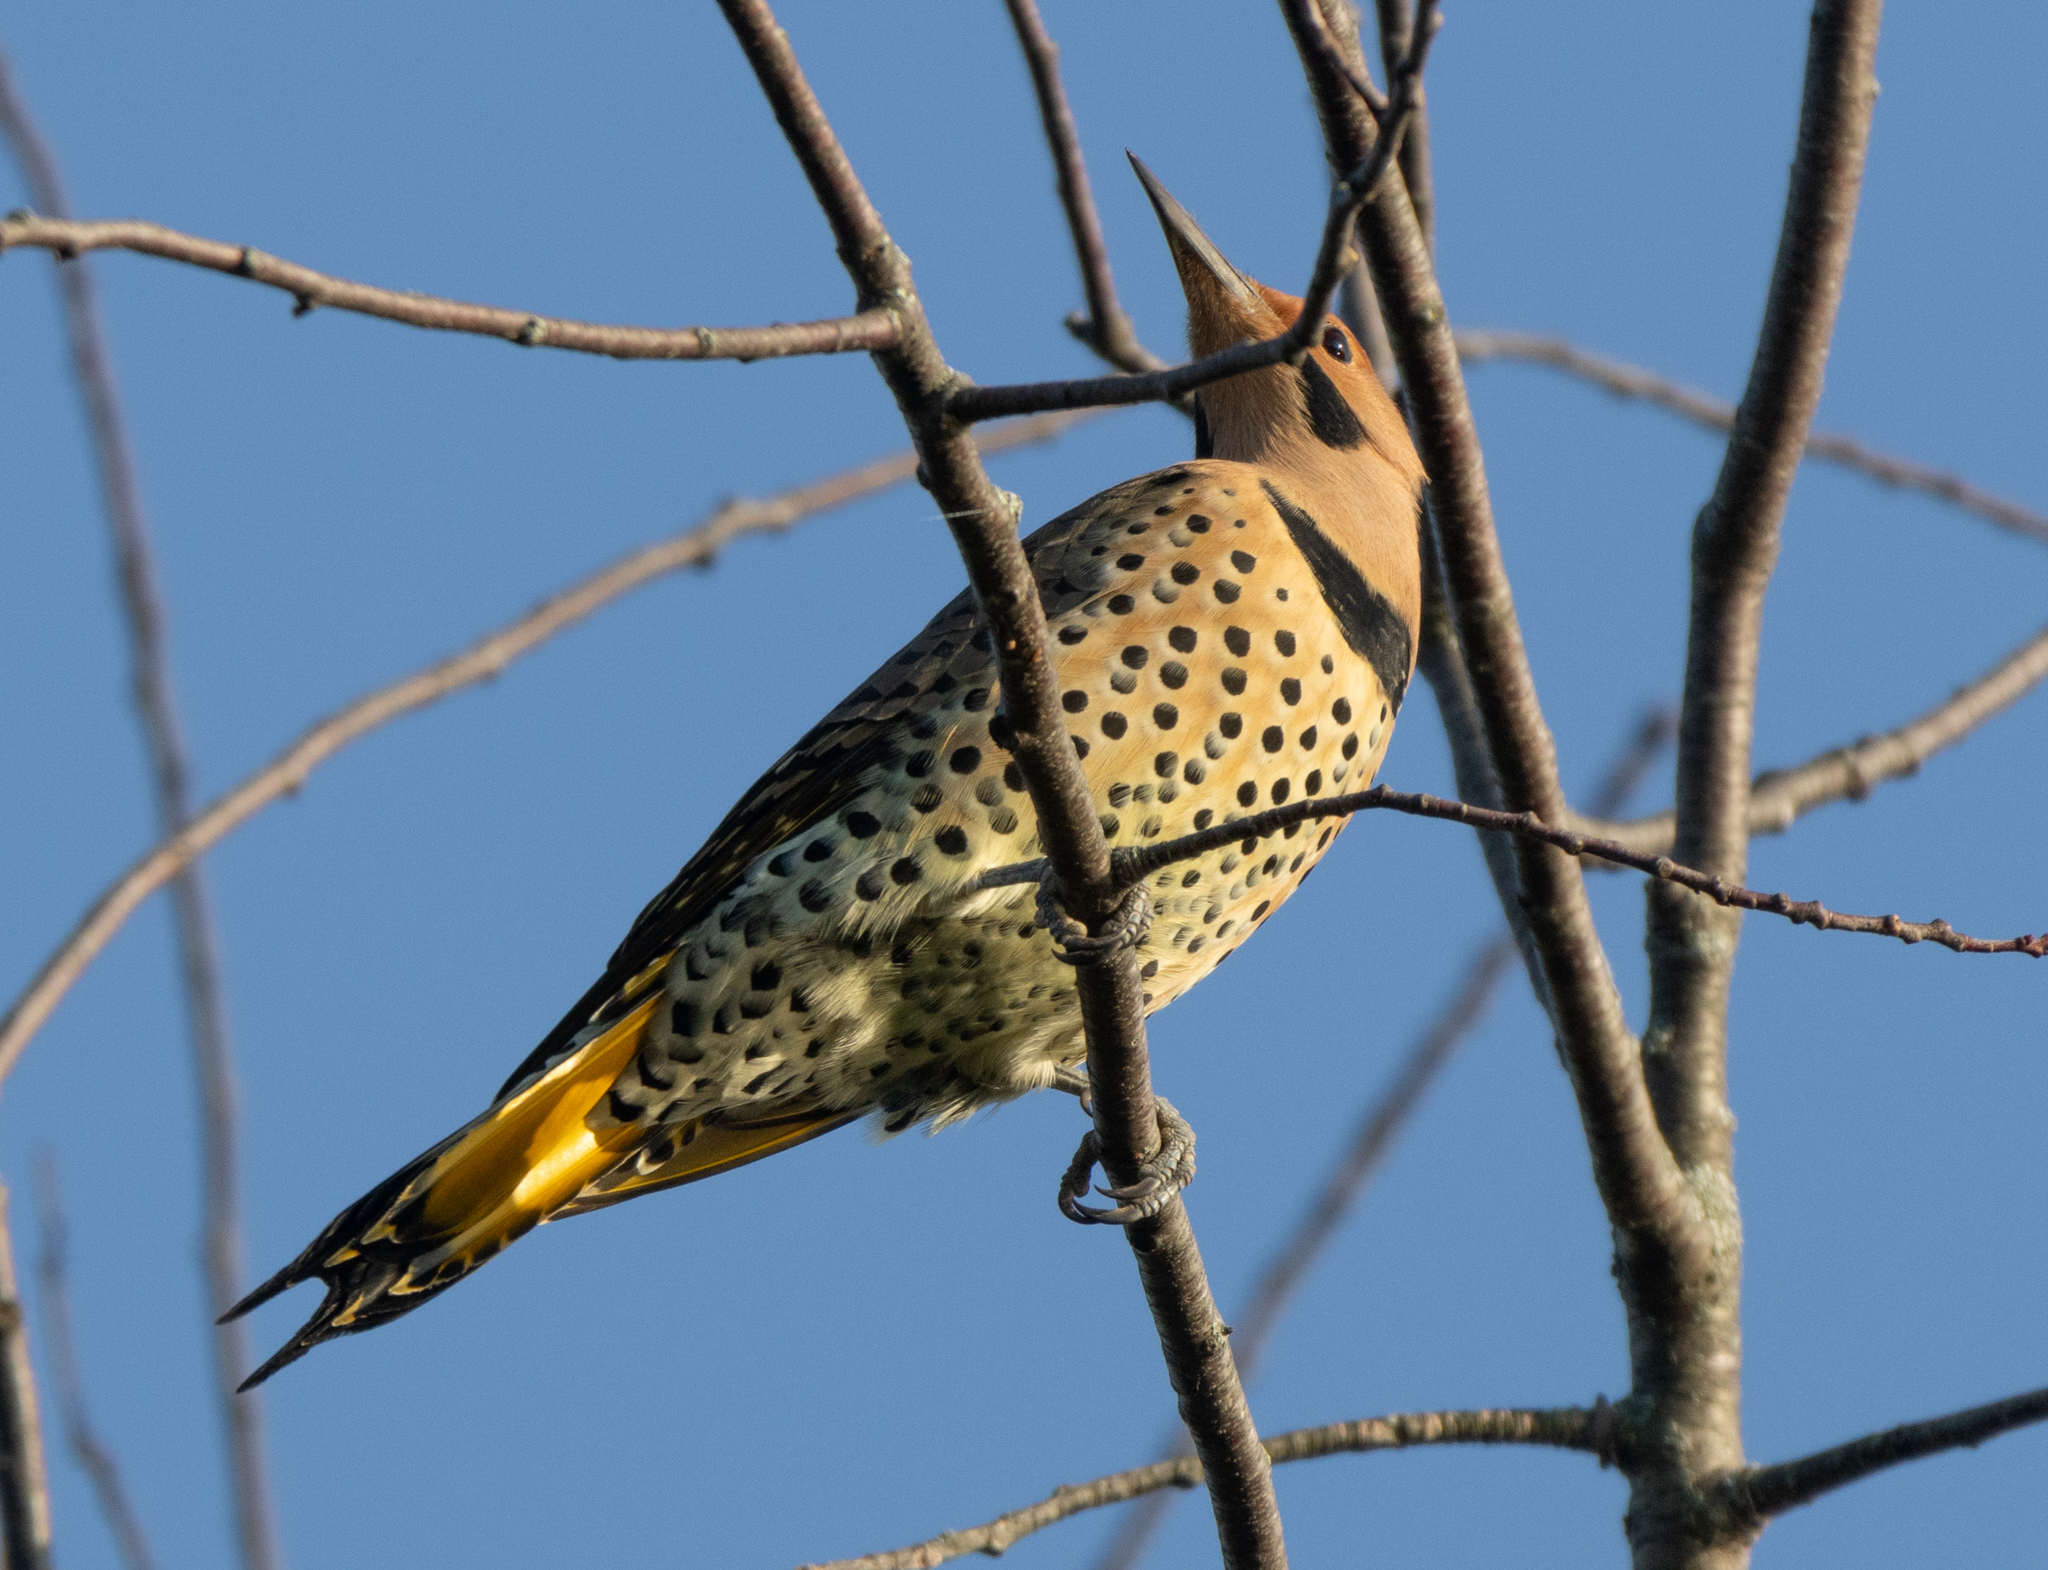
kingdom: Animalia
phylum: Chordata
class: Aves
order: Piciformes
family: Picidae
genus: Colaptes
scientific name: Colaptes auratus
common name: Northern flicker
